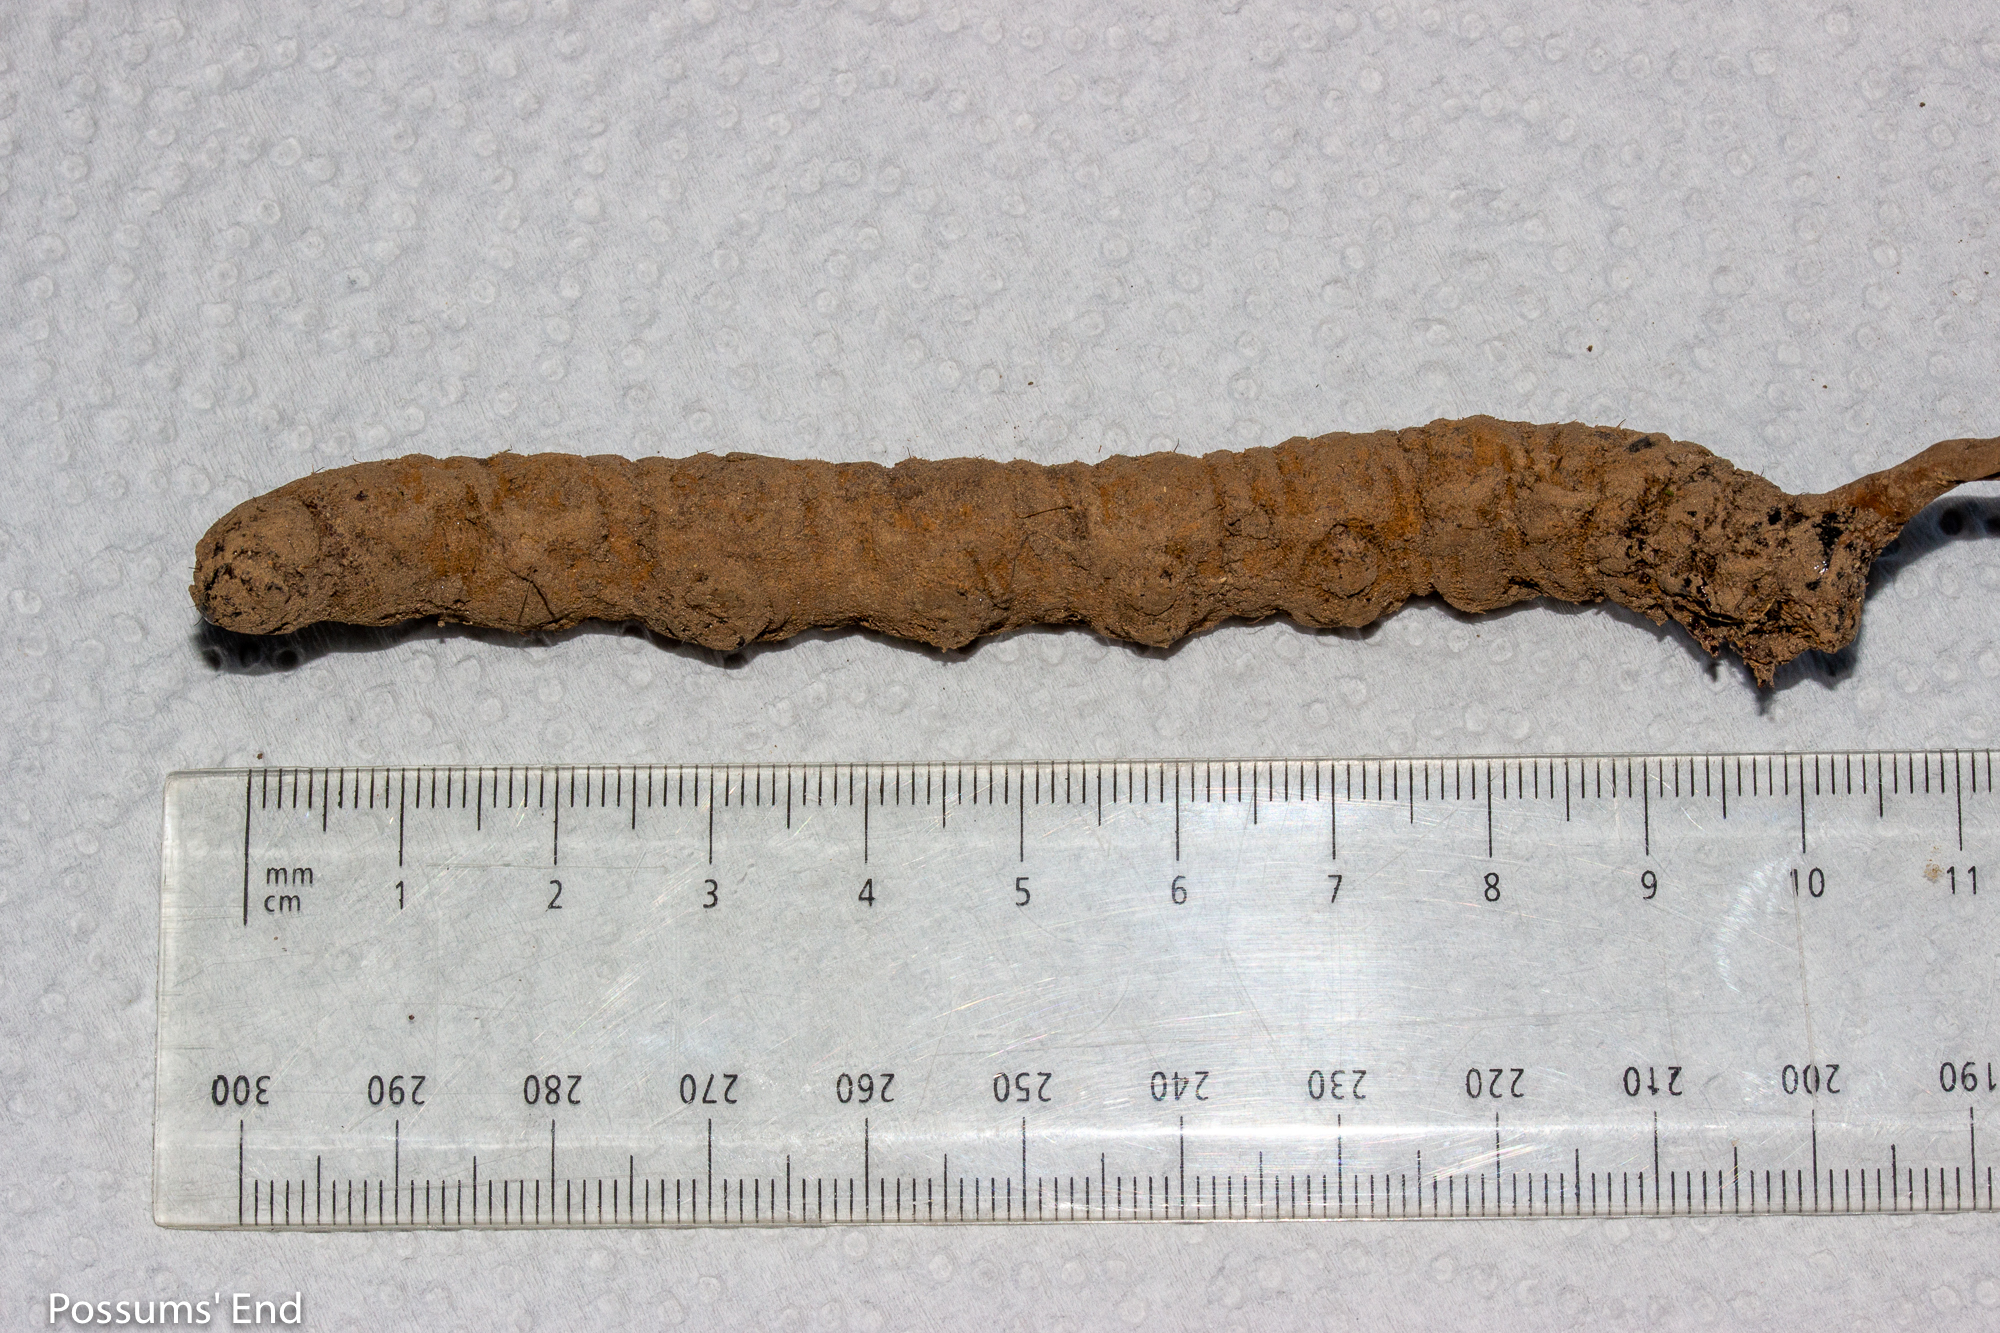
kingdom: Animalia
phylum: Arthropoda
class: Insecta
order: Lepidoptera
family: Hepialidae
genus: Aoraia
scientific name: Aoraia rufivena
